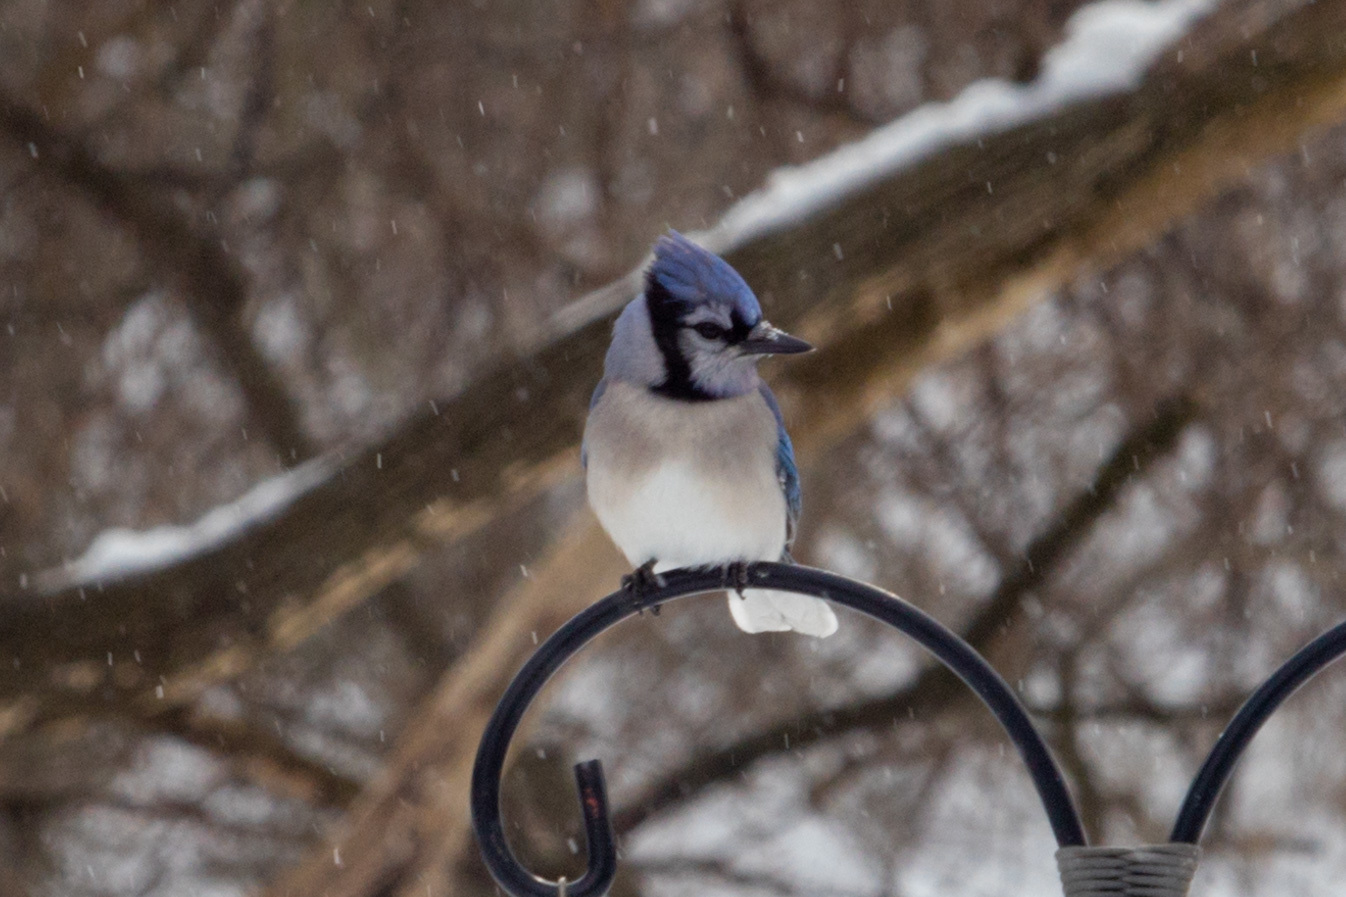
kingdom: Animalia
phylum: Chordata
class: Aves
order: Passeriformes
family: Corvidae
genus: Cyanocitta
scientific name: Cyanocitta cristata
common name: Blue jay
